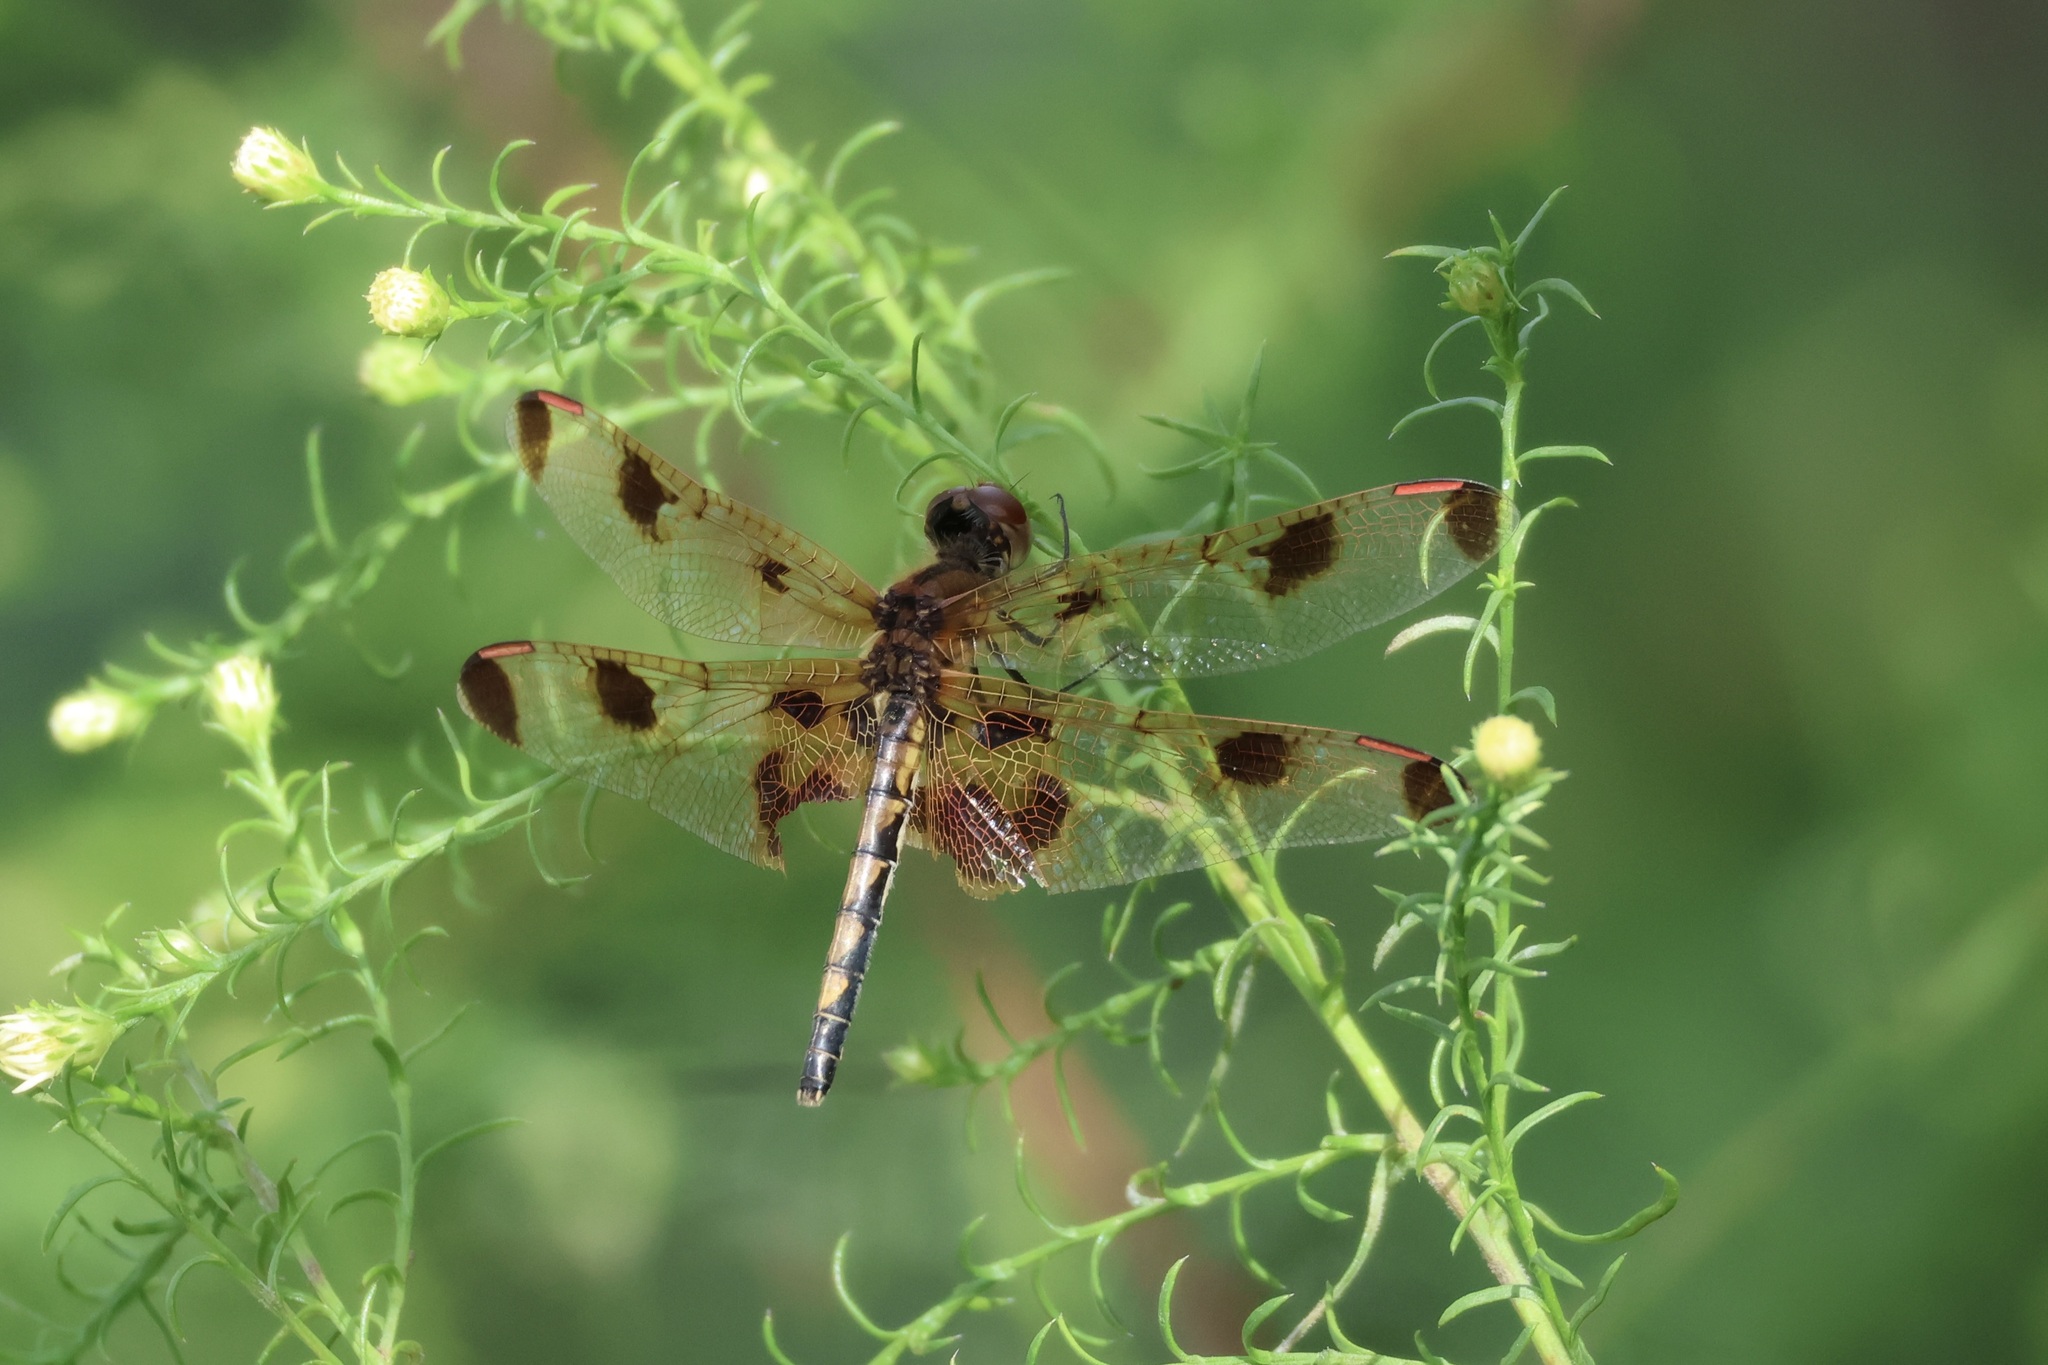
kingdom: Animalia
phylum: Arthropoda
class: Insecta
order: Odonata
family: Libellulidae
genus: Celithemis
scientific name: Celithemis elisa
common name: Calico pennant
